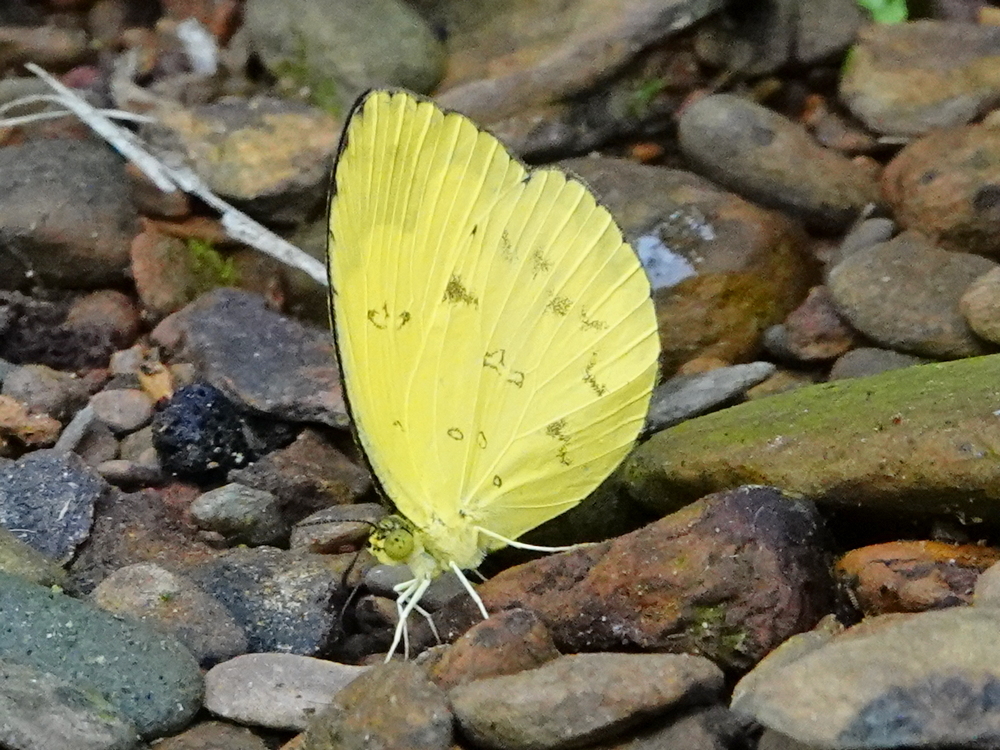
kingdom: Animalia
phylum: Arthropoda
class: Insecta
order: Lepidoptera
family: Pieridae
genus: Eurema
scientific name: Eurema hecabe
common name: Pale grass yellow
